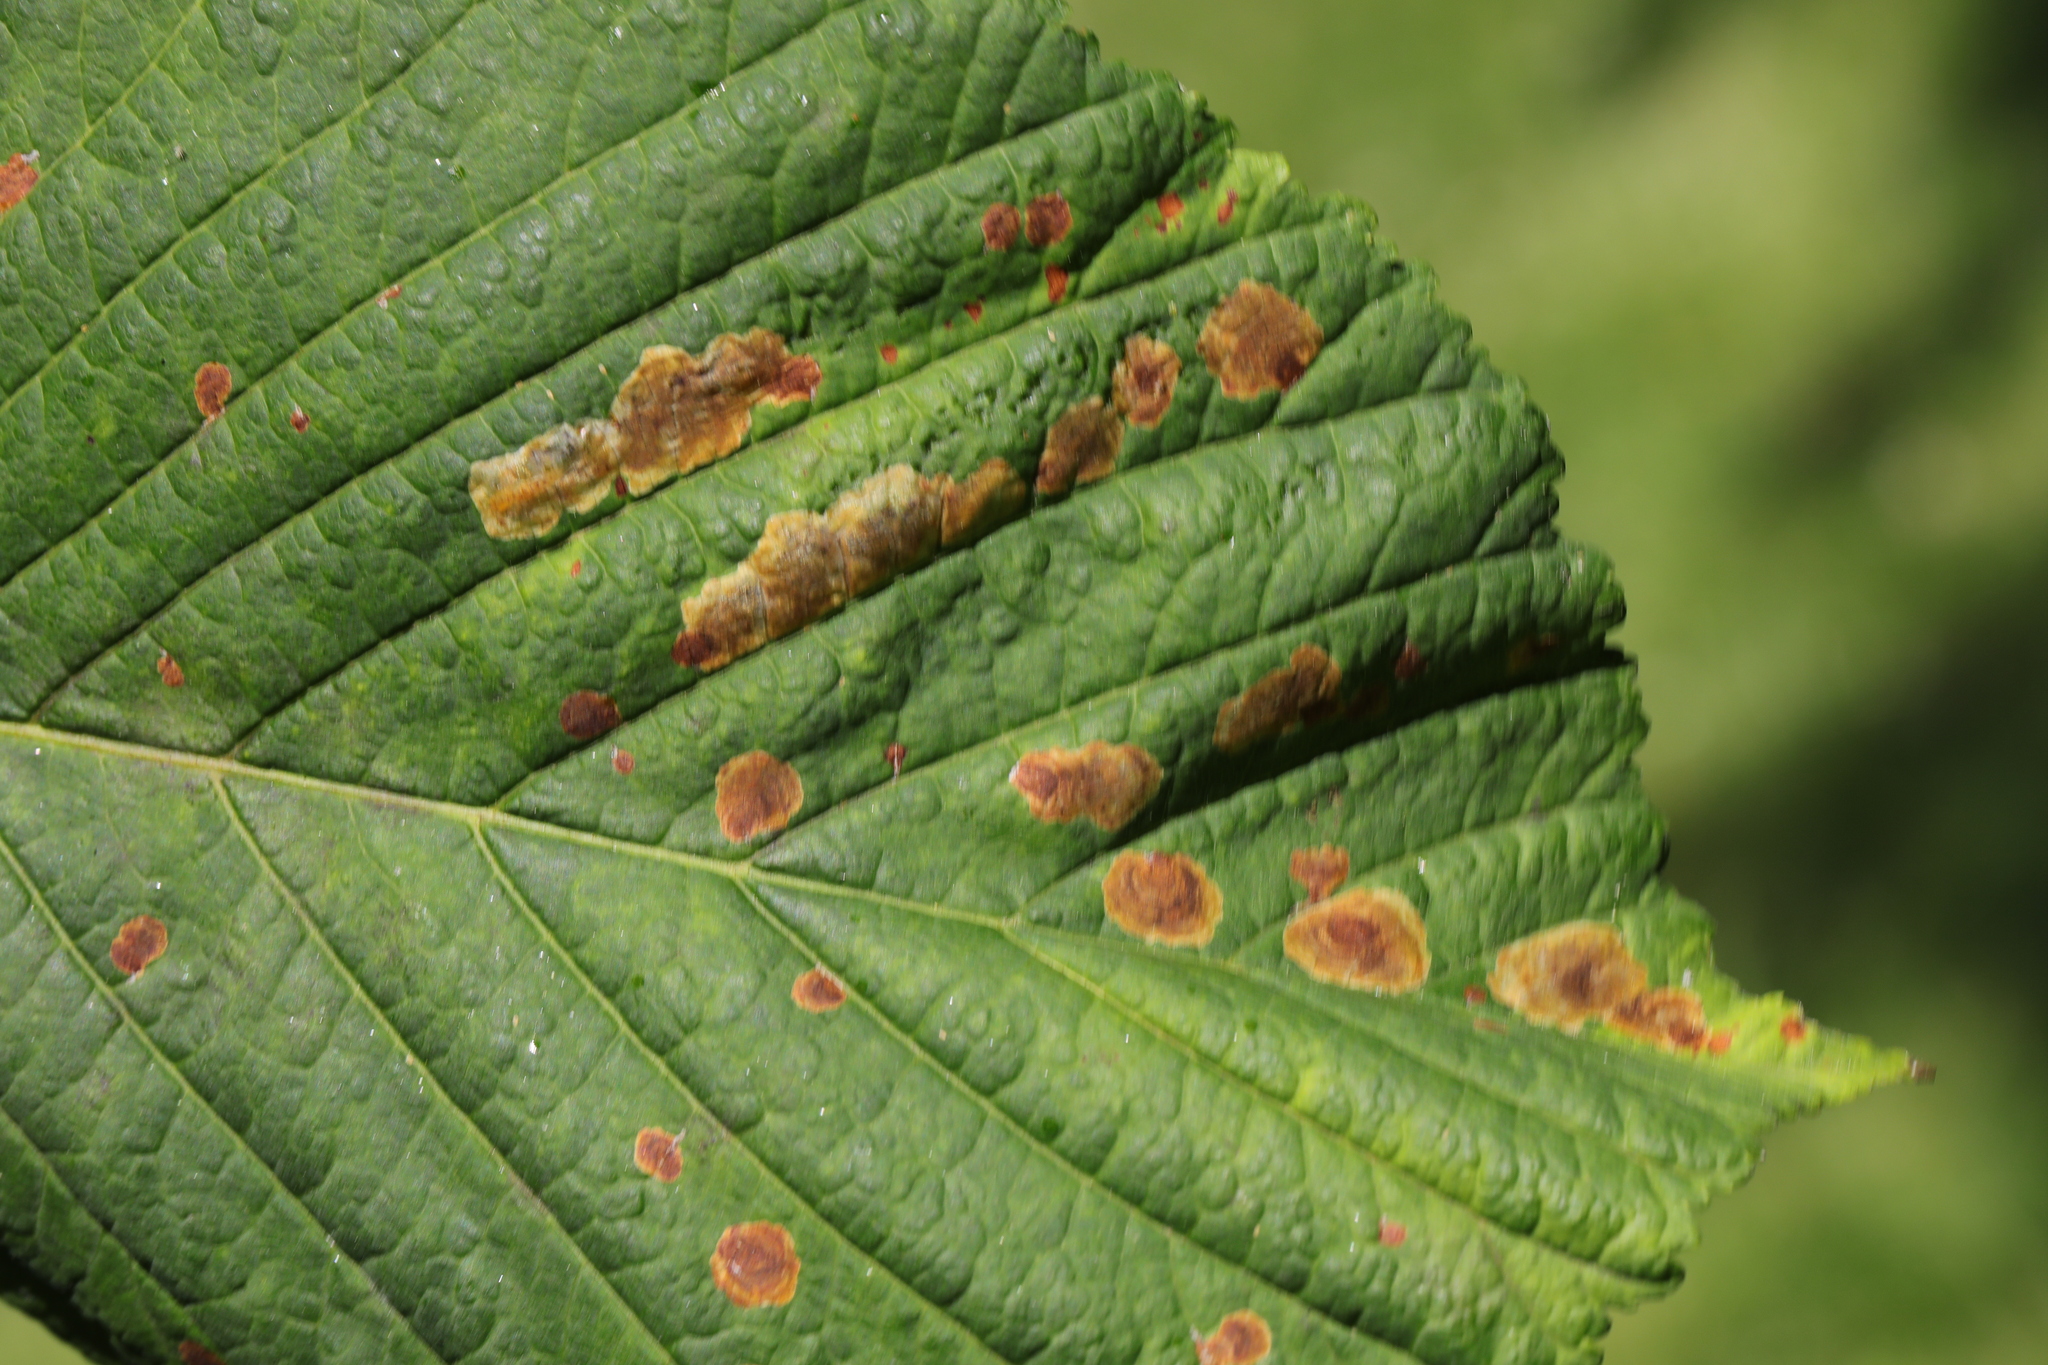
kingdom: Animalia
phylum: Arthropoda
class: Insecta
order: Lepidoptera
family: Gracillariidae
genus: Cameraria
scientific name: Cameraria ohridella
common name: Horse-chestnut leaf-miner
